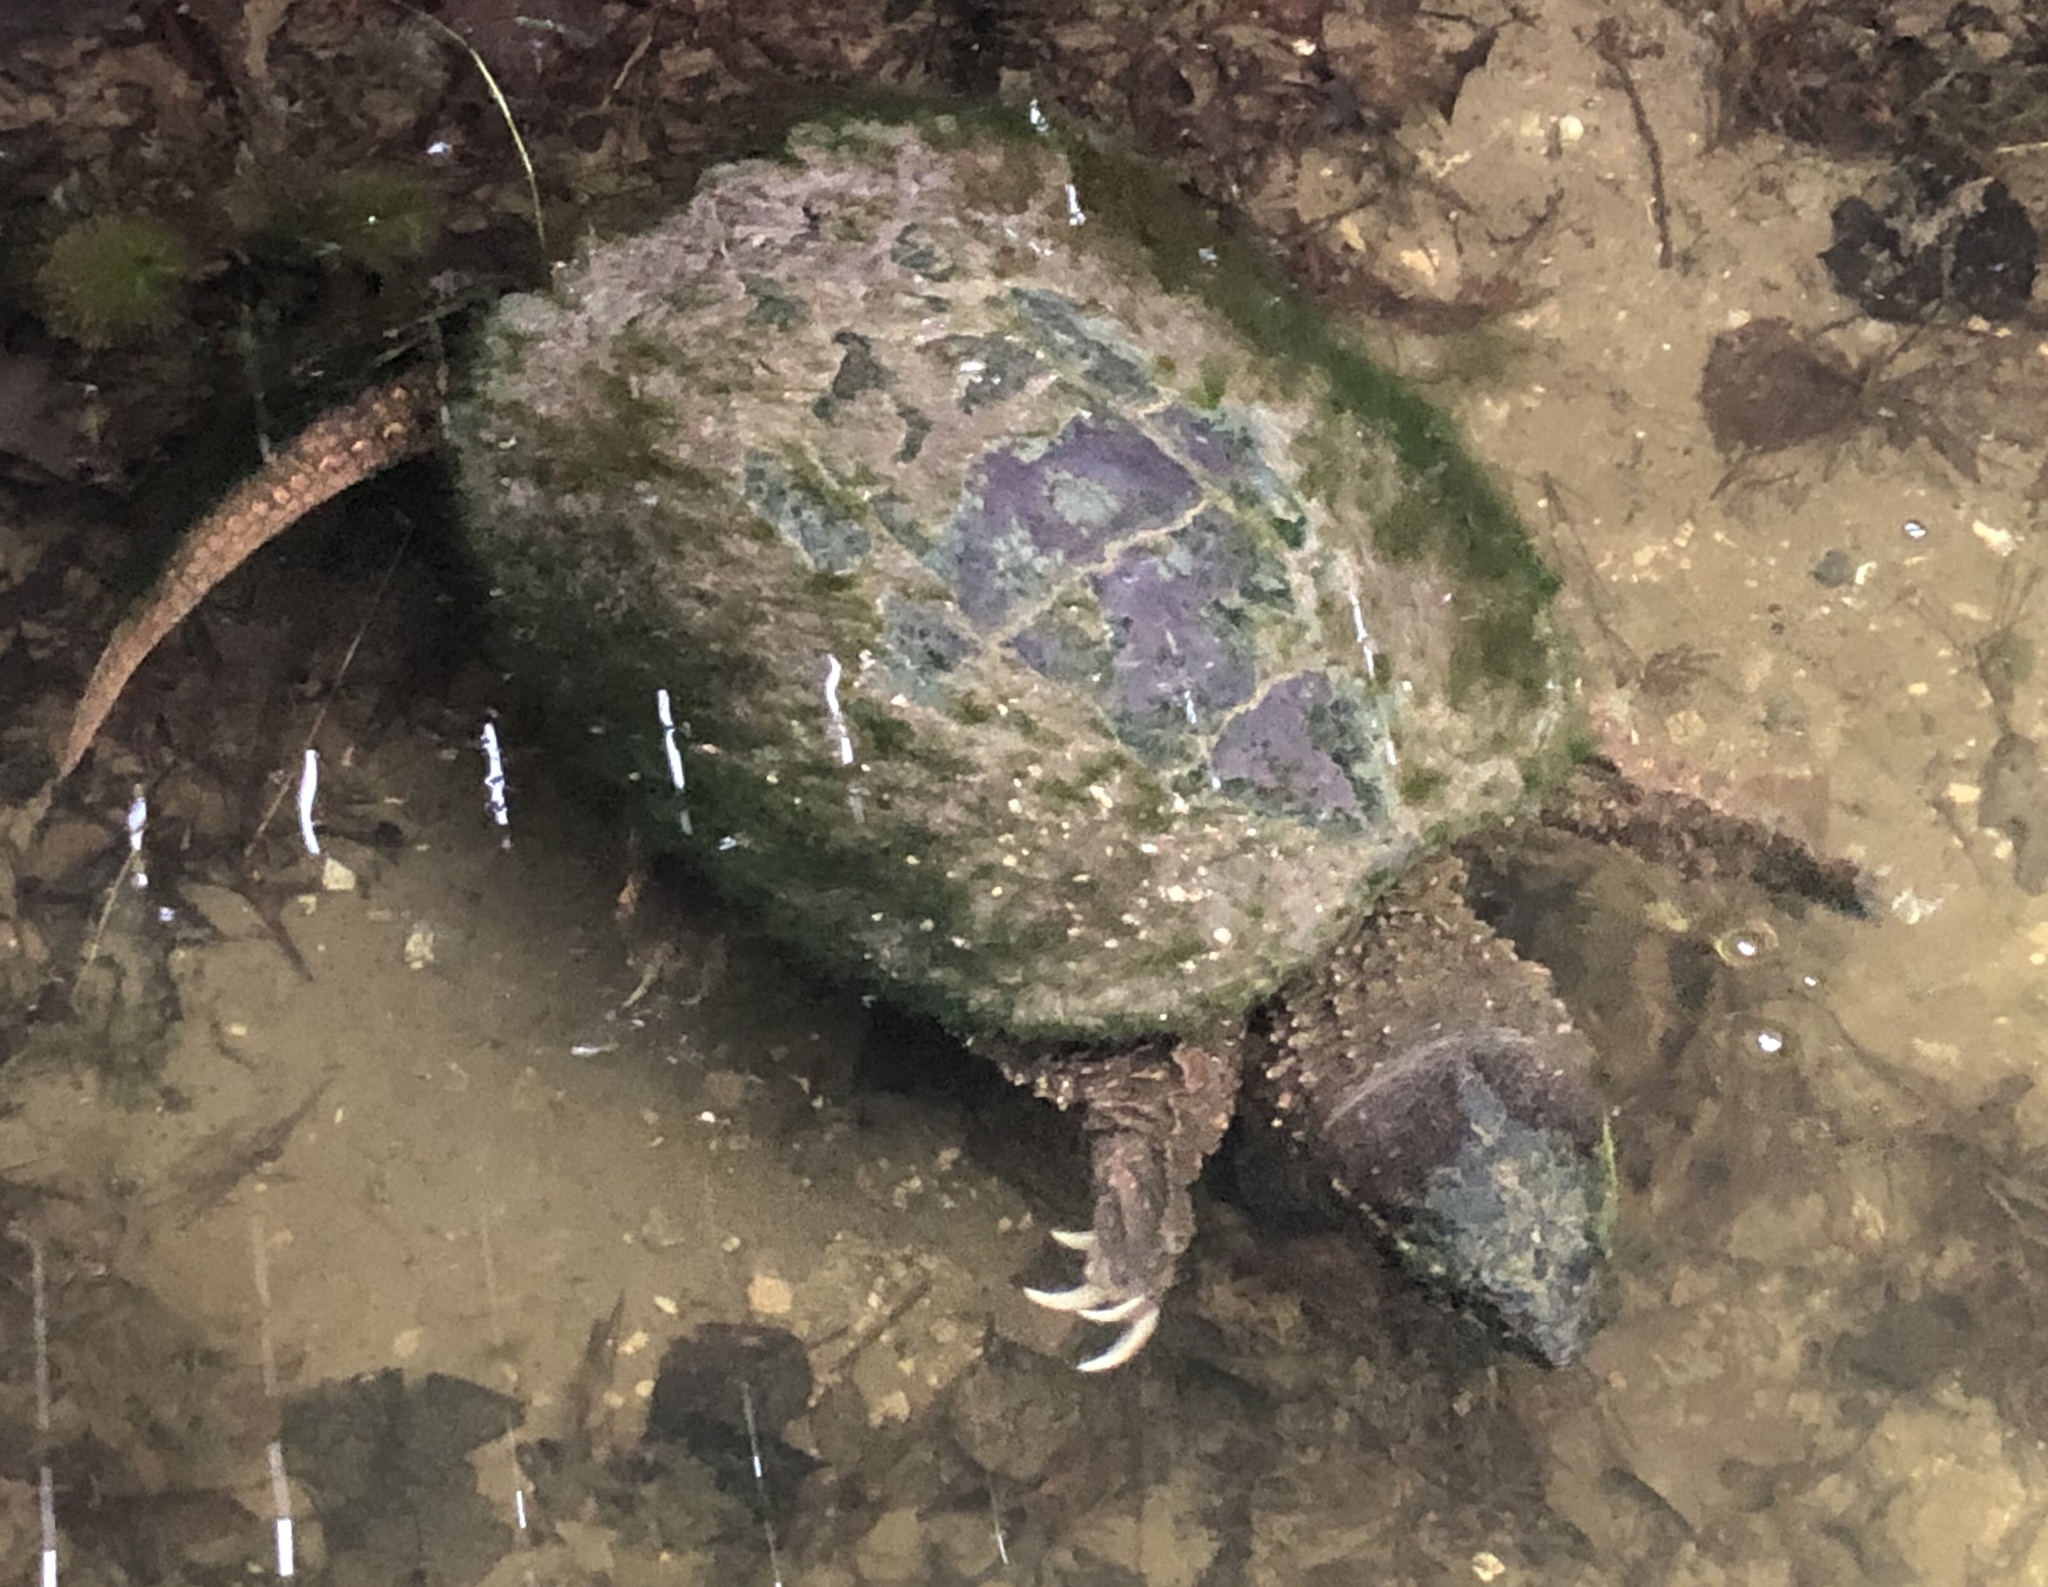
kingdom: Animalia
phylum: Chordata
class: Testudines
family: Chelydridae
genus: Chelydra
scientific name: Chelydra serpentina
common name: Common snapping turtle
